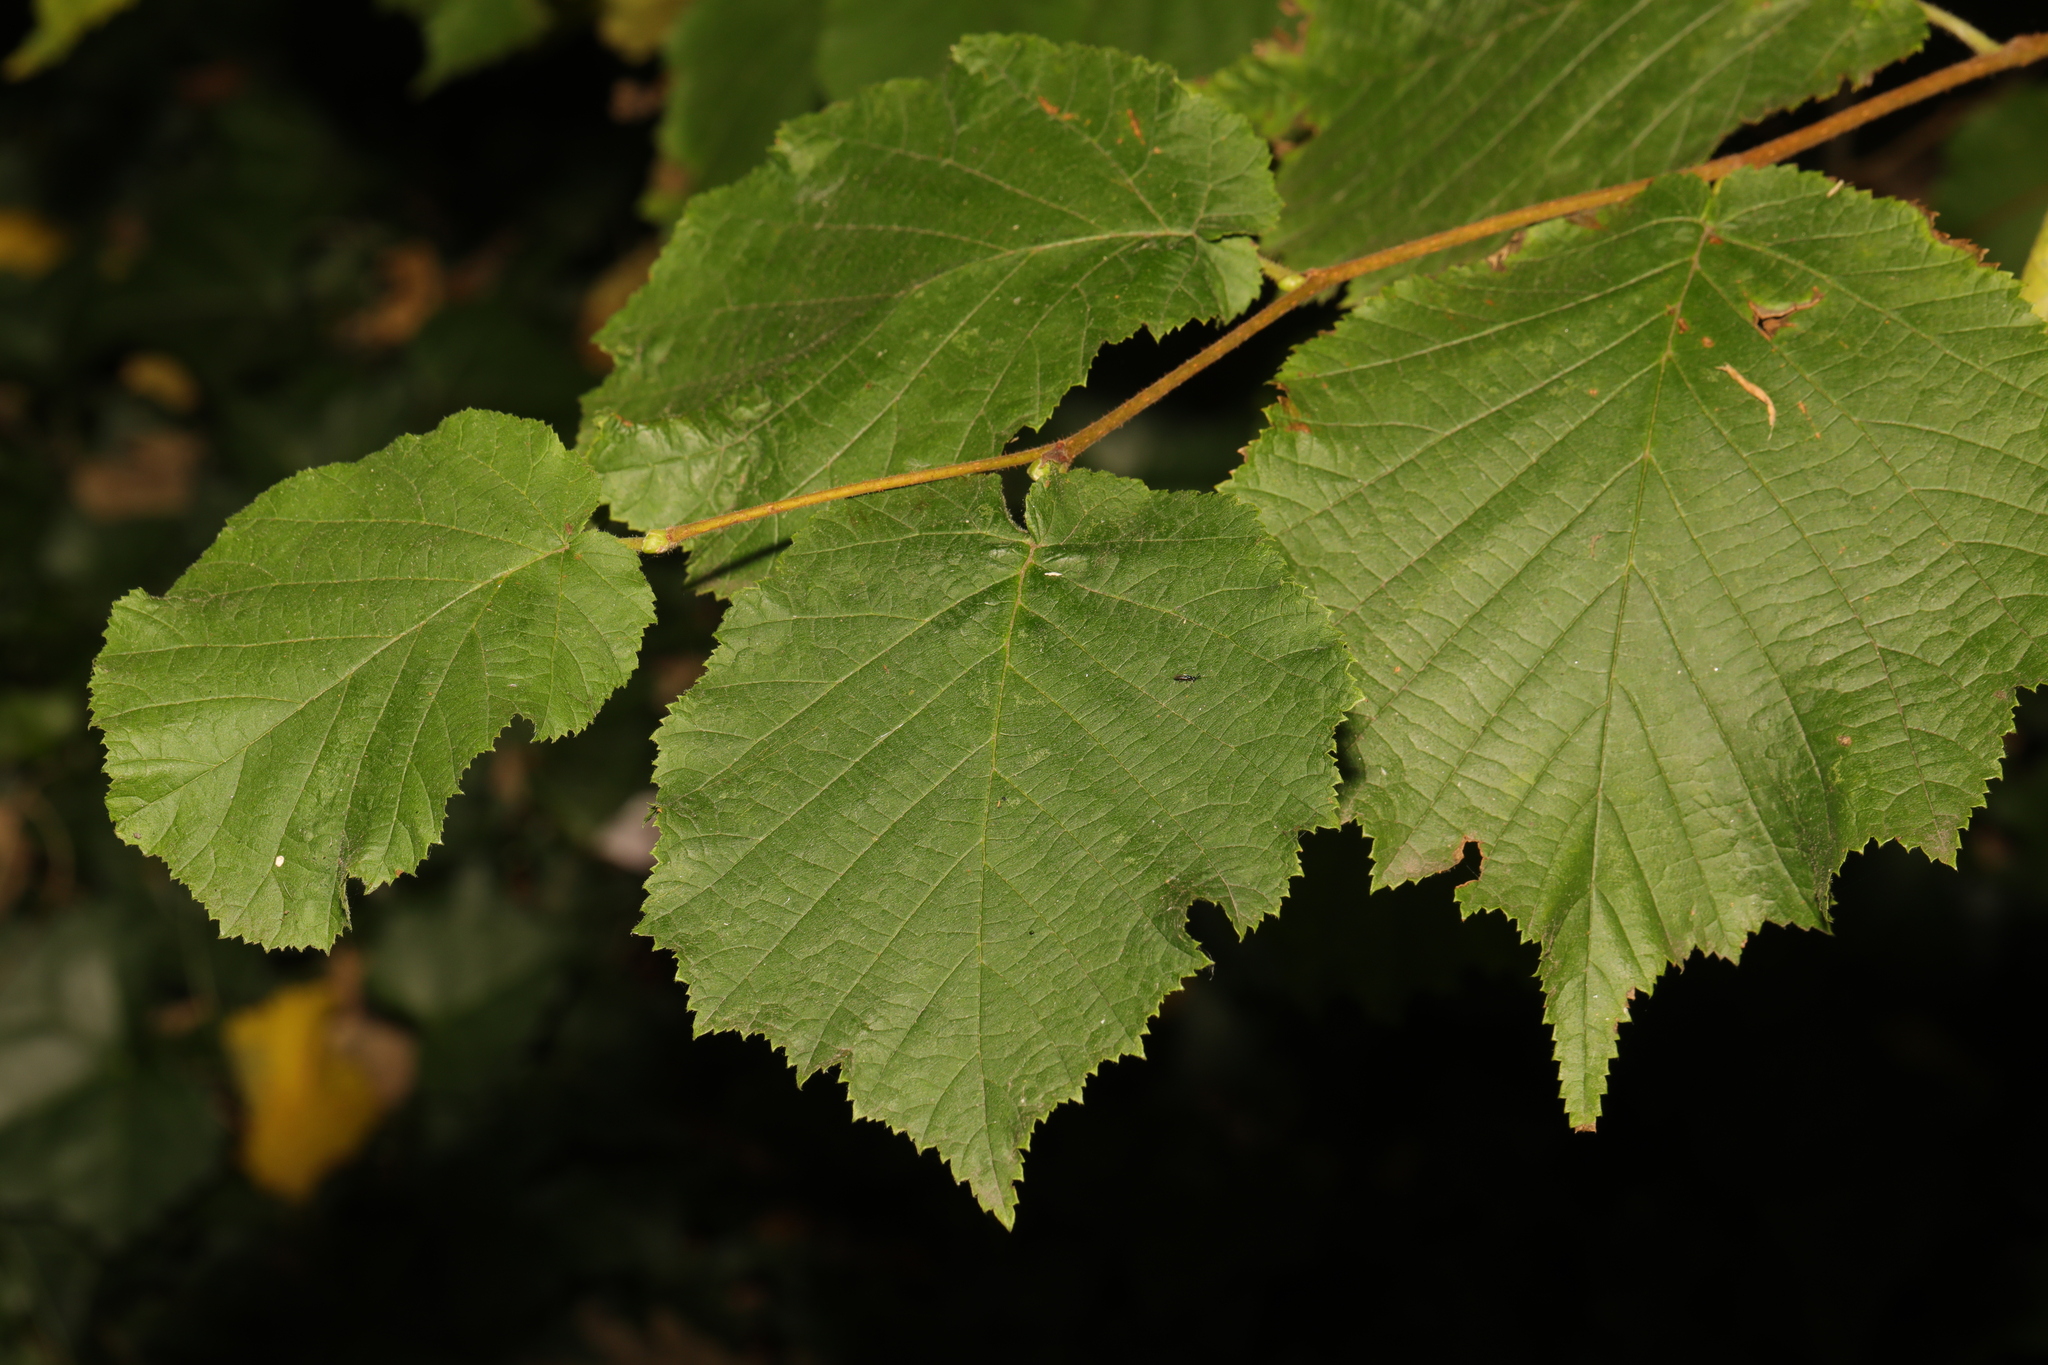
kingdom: Plantae
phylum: Tracheophyta
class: Magnoliopsida
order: Fagales
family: Betulaceae
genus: Corylus
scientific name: Corylus avellana
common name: European hazel
